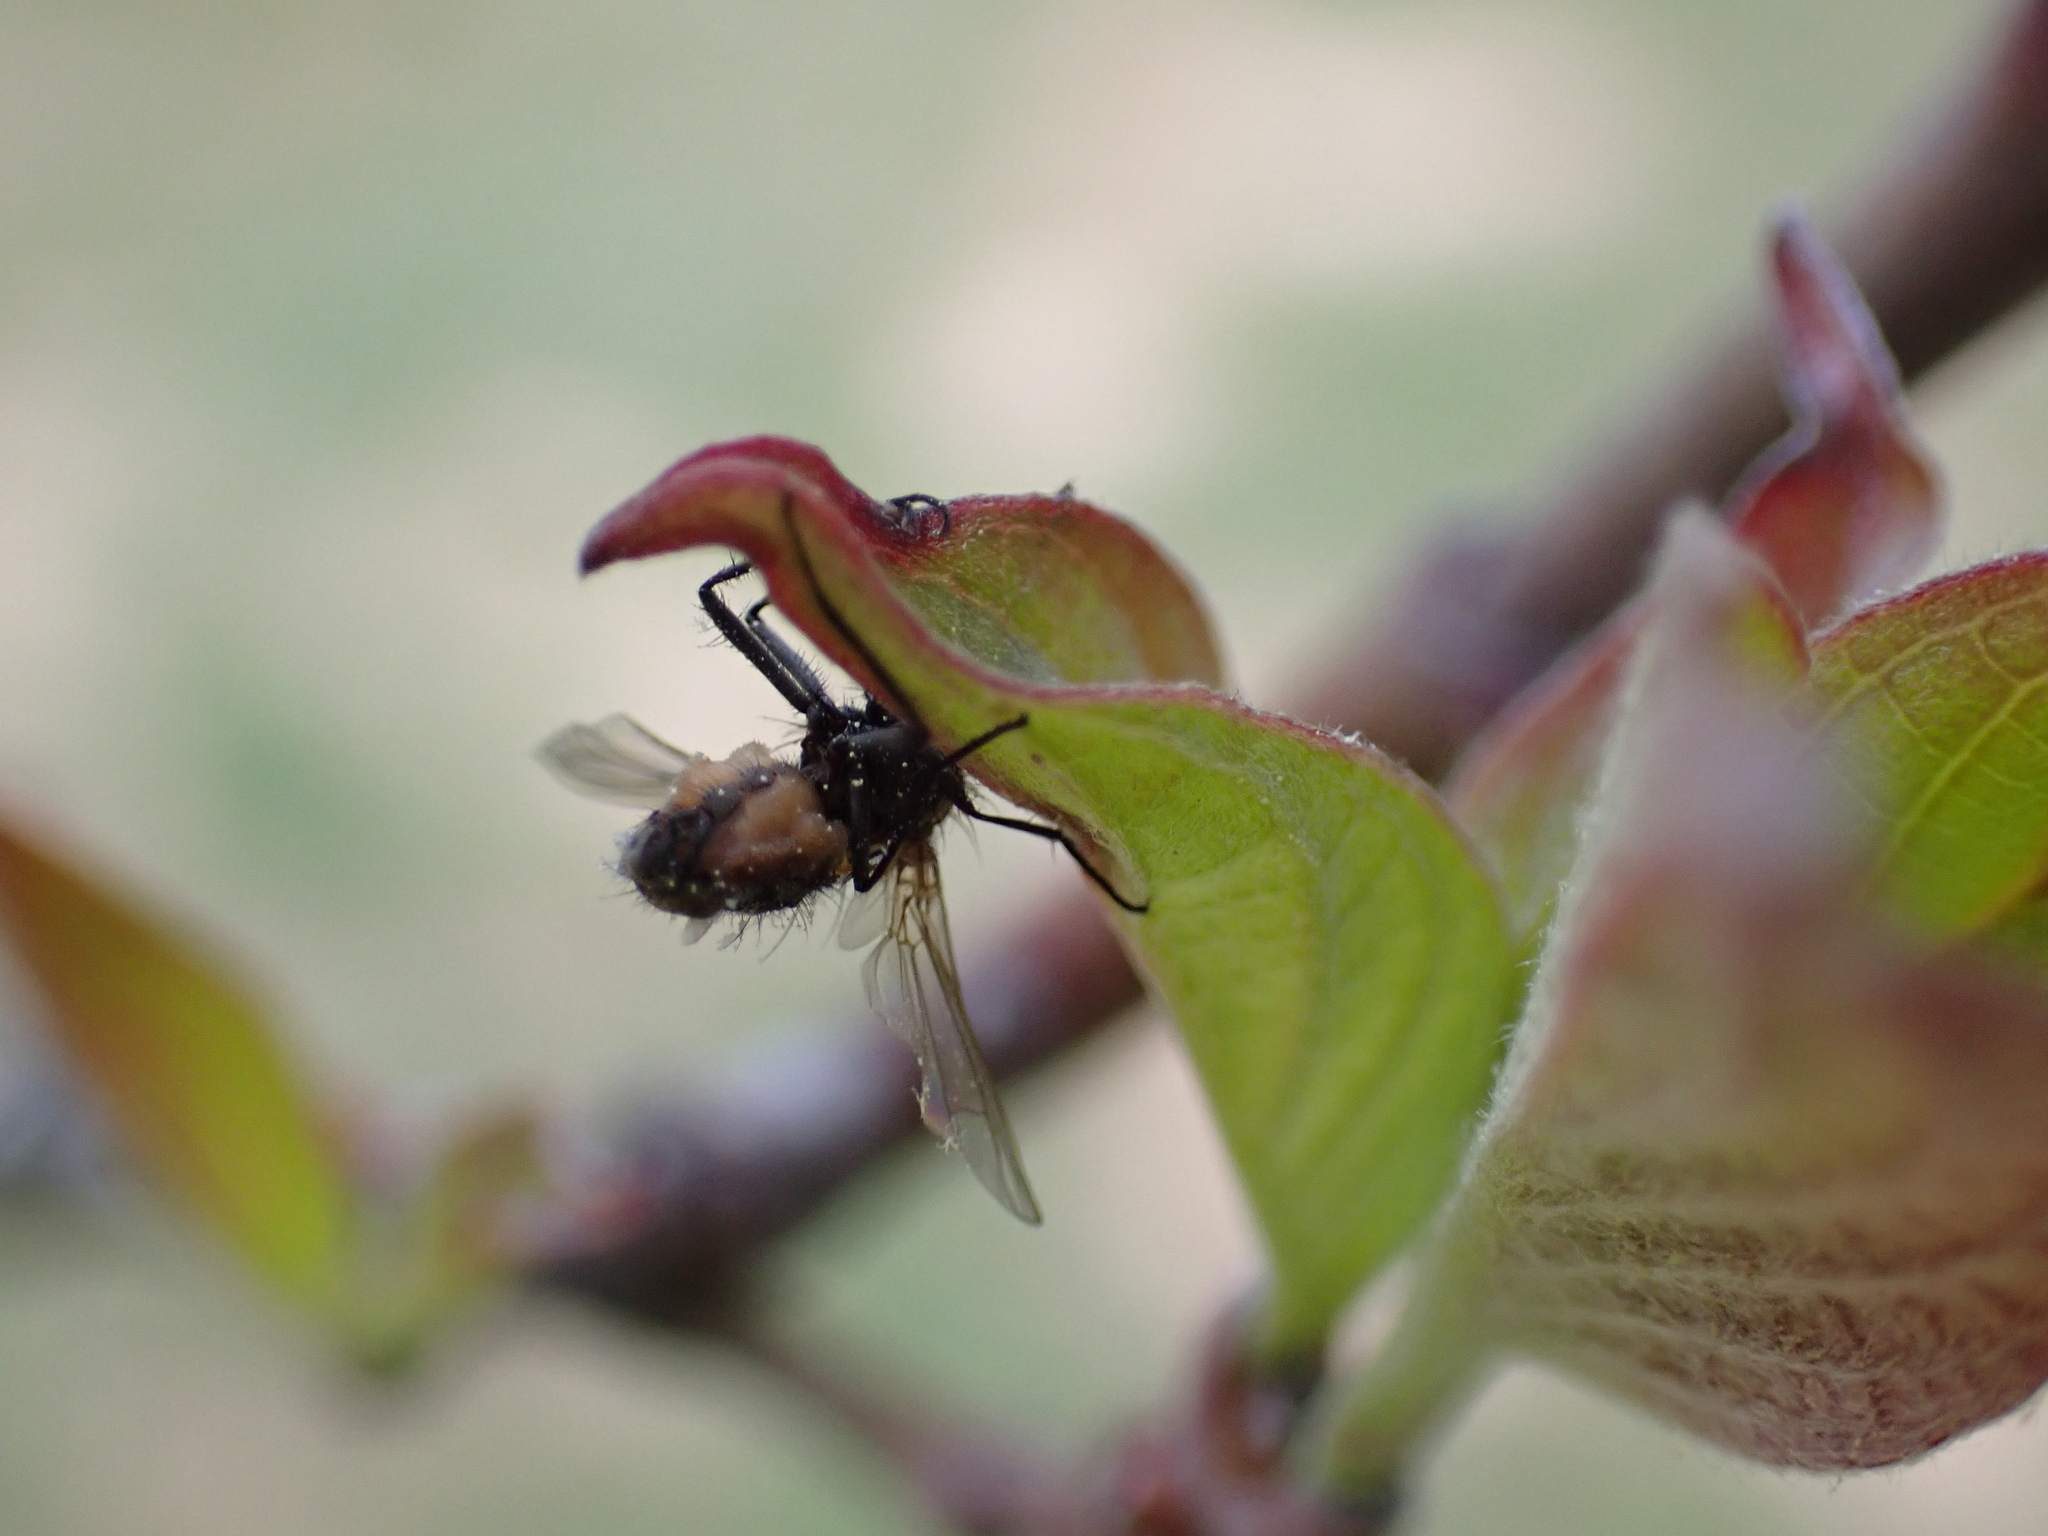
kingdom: Fungi
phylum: Entomophthoromycota
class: Entomophthoromycetes
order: Entomophthorales
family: Entomophthoraceae
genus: Entomophthora
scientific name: Entomophthora
